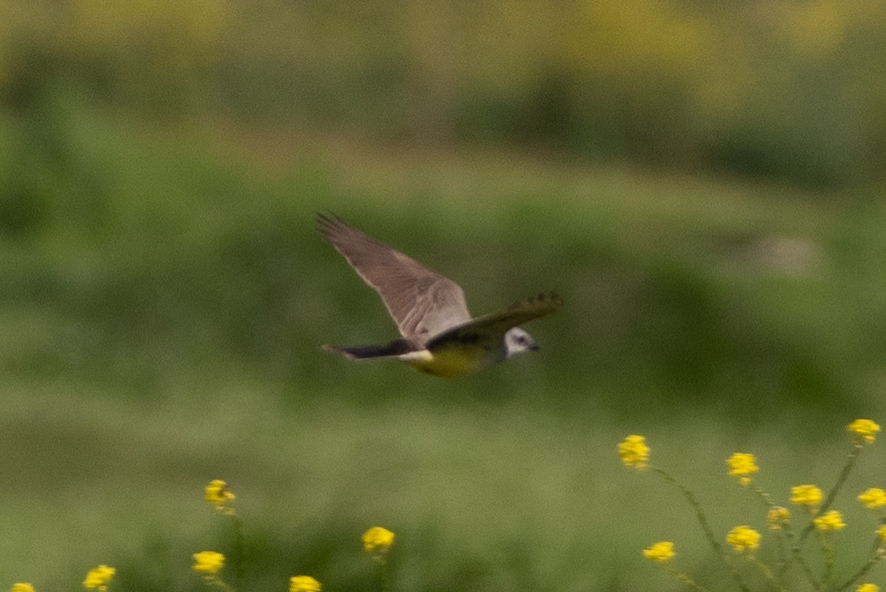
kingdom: Animalia
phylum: Chordata
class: Aves
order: Passeriformes
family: Tyrannidae
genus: Tyrannus
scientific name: Tyrannus verticalis
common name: Western kingbird
